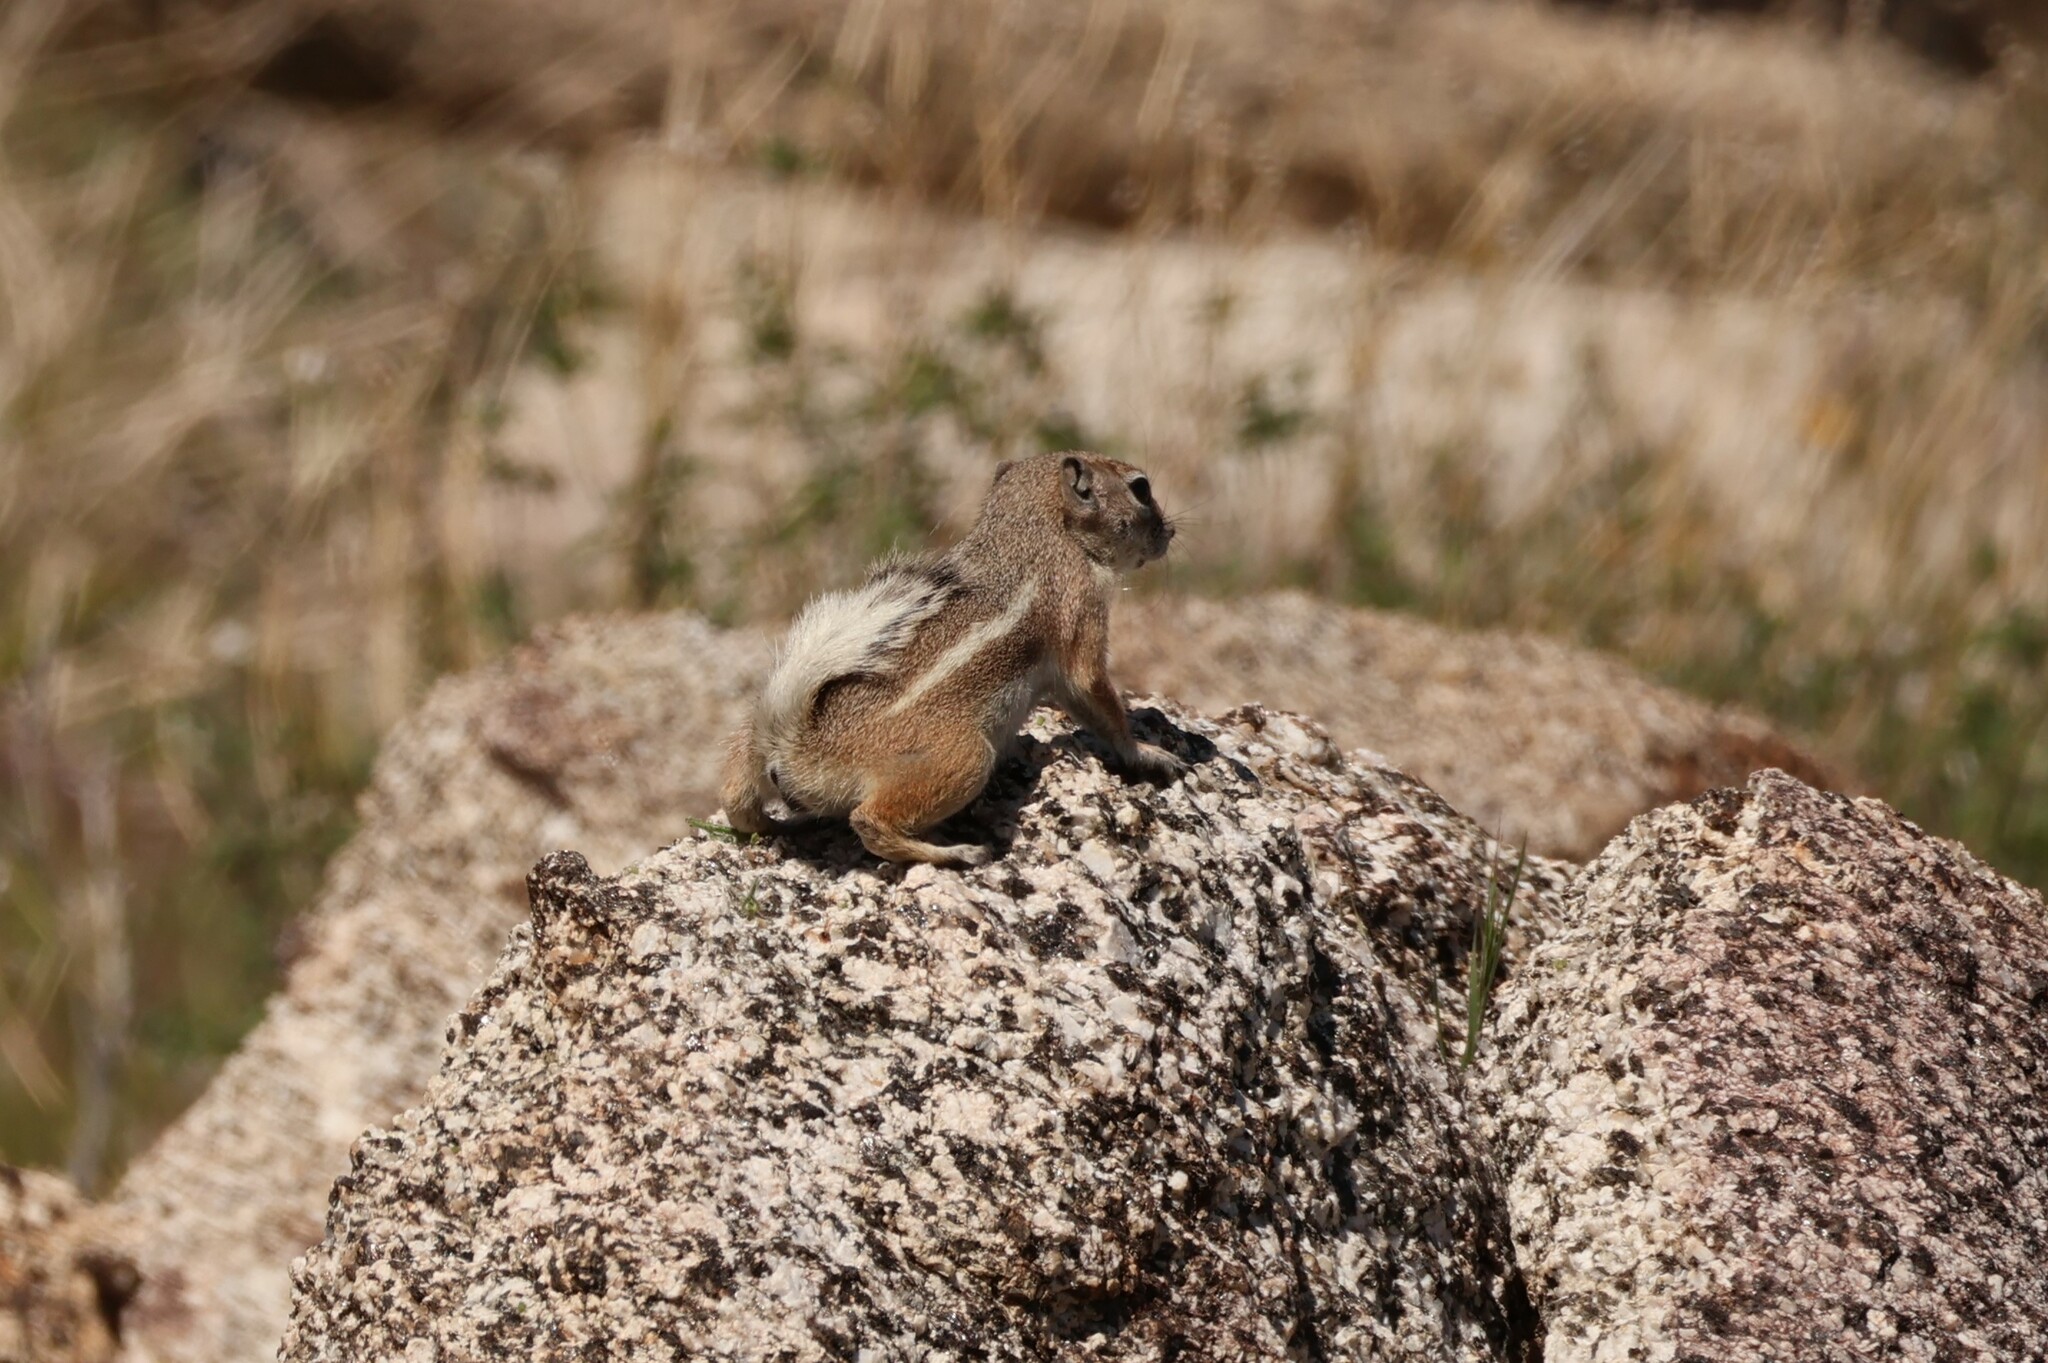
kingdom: Animalia
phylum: Chordata
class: Mammalia
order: Rodentia
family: Sciuridae
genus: Ammospermophilus
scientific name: Ammospermophilus leucurus
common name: White-tailed antelope squirrel
